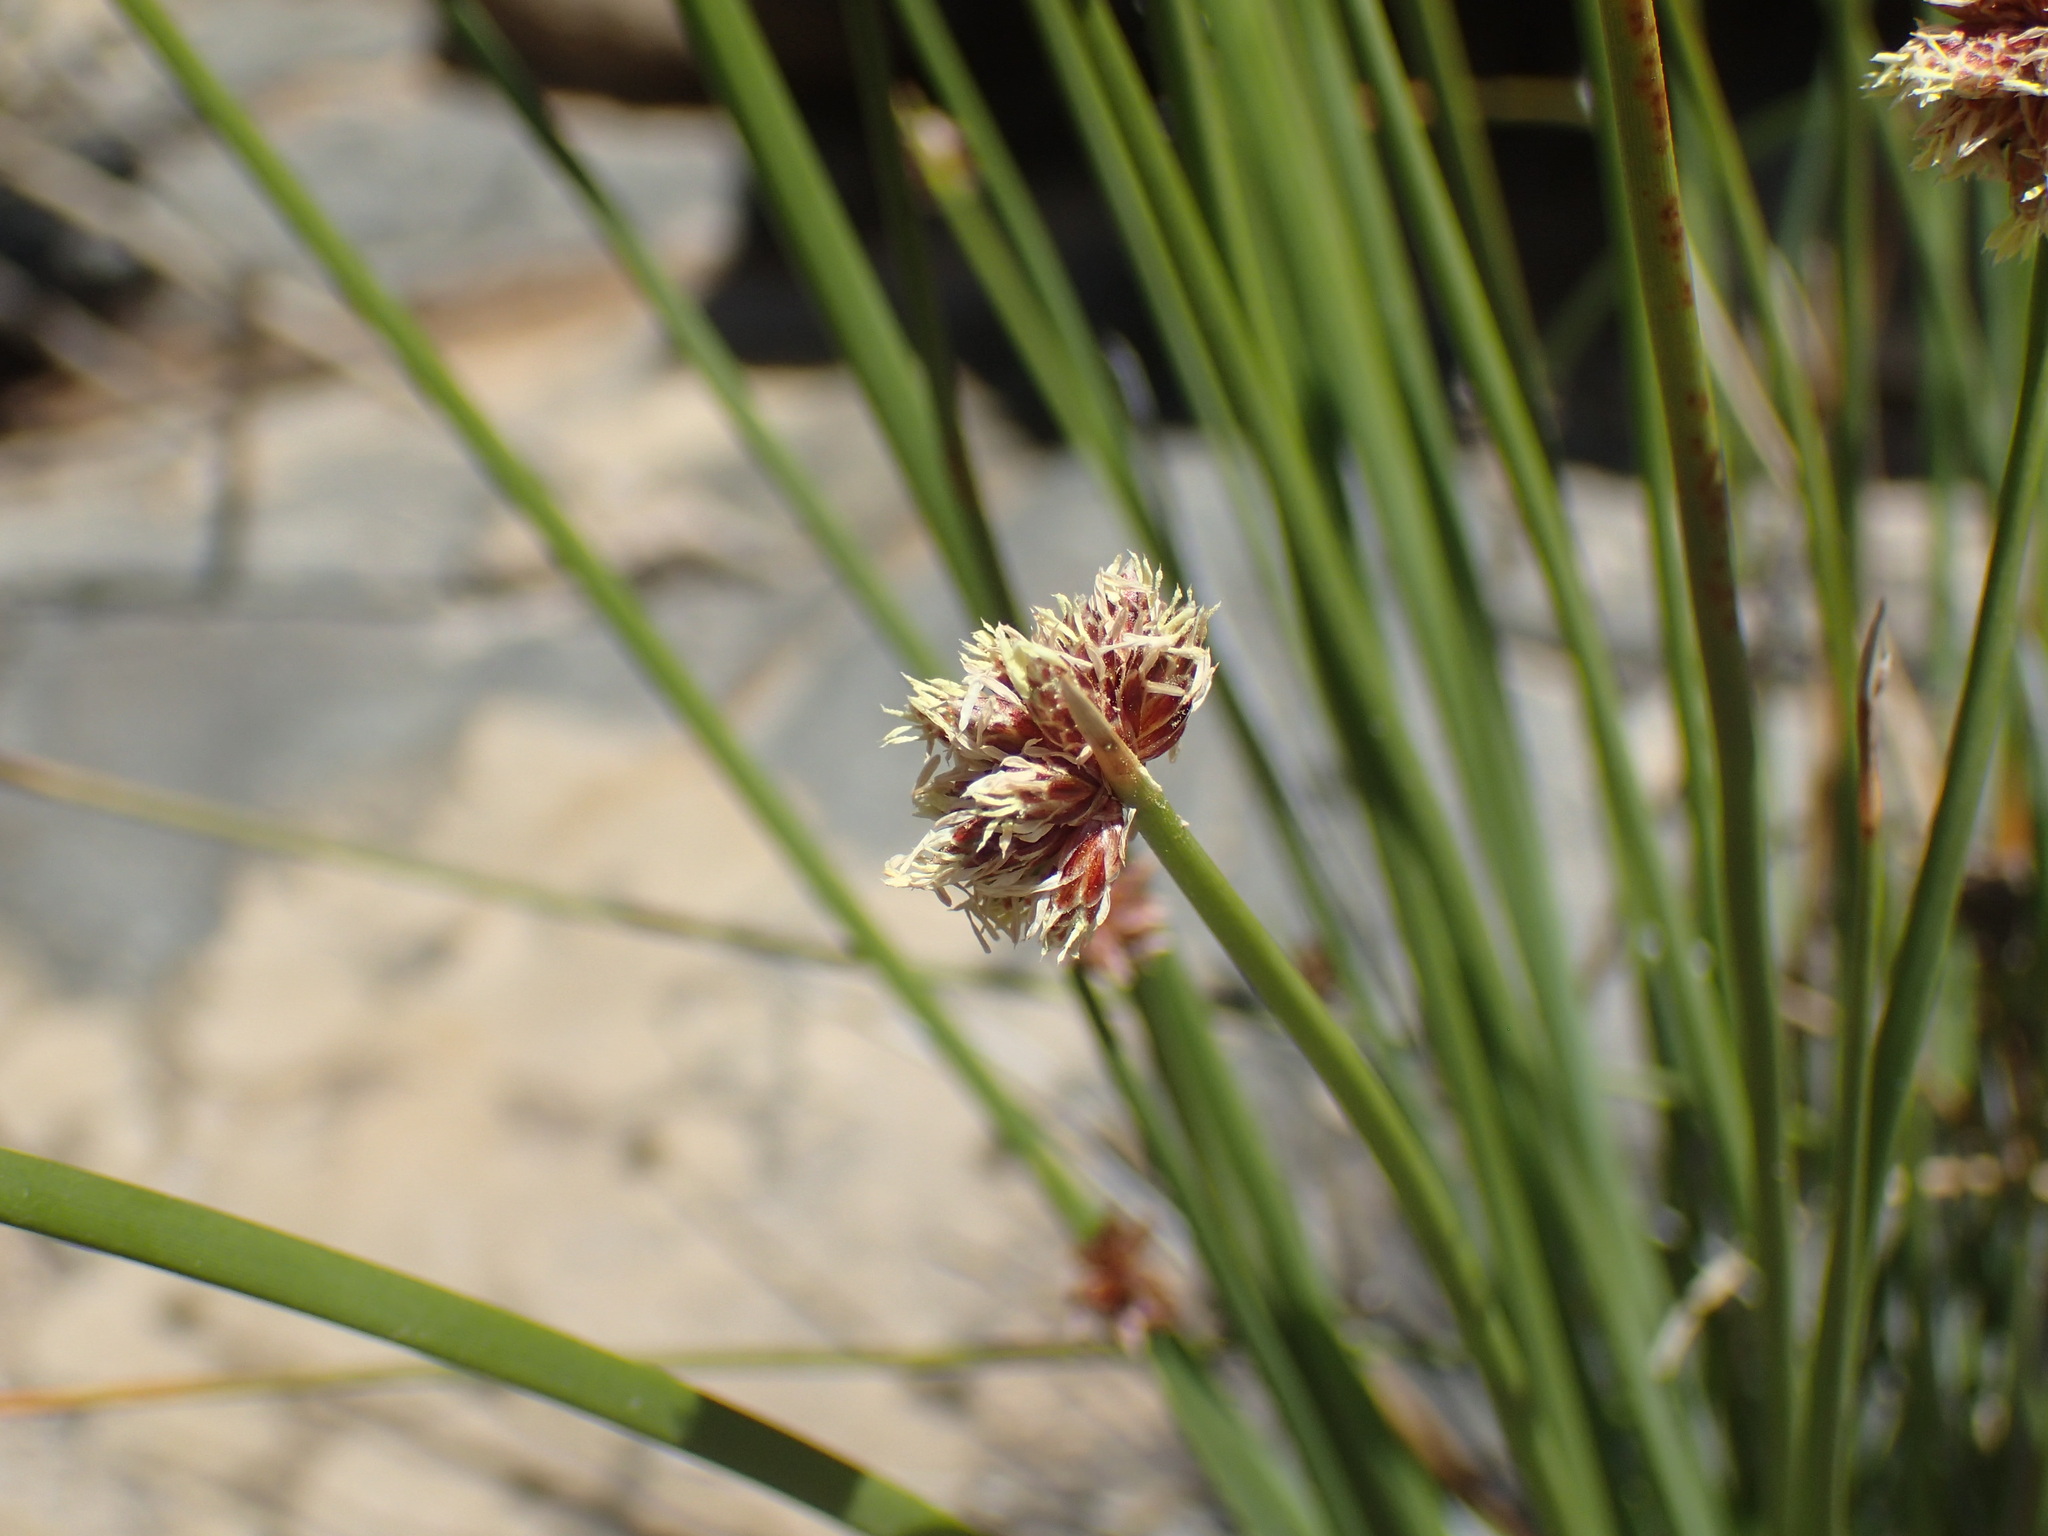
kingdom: Plantae
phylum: Tracheophyta
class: Liliopsida
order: Poales
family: Cyperaceae
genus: Afroscirpoides
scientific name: Afroscirpoides dioeca
